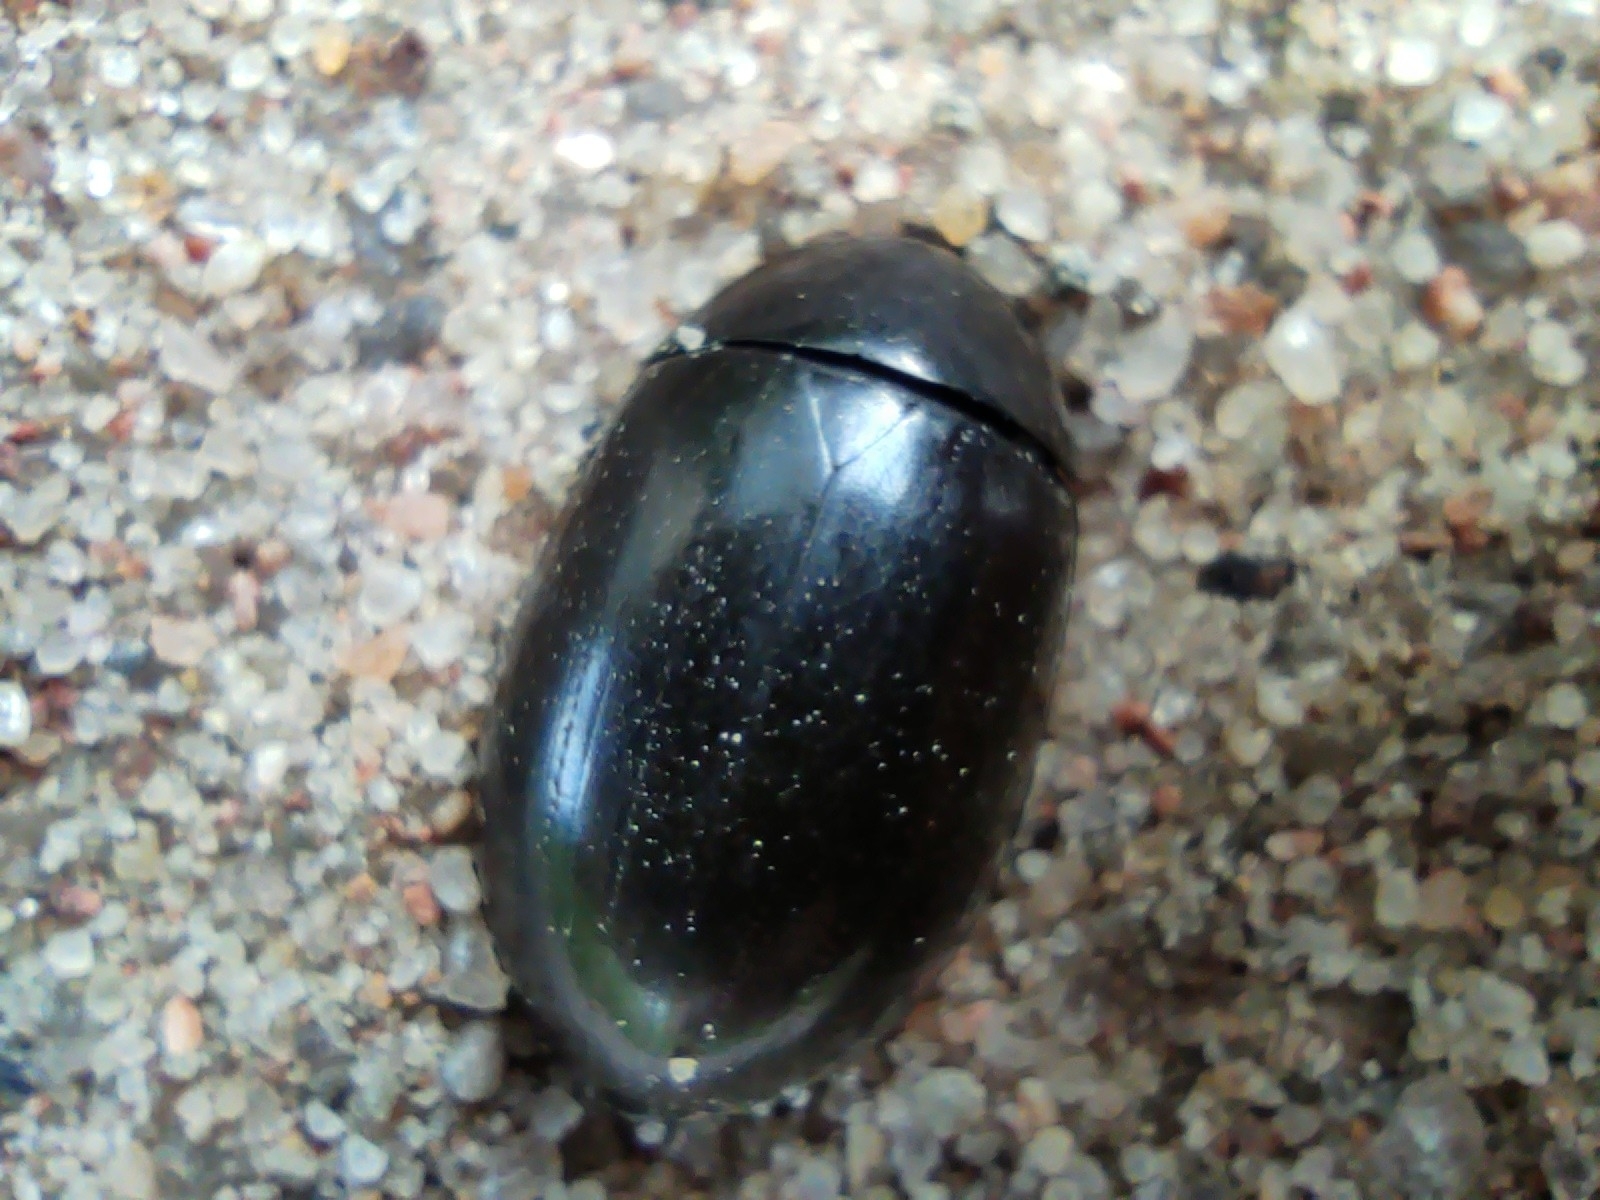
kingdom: Animalia
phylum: Arthropoda
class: Insecta
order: Coleoptera
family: Hydrophilidae
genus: Hydrochara
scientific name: Hydrochara caraboides
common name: Lesser silver water beetle
